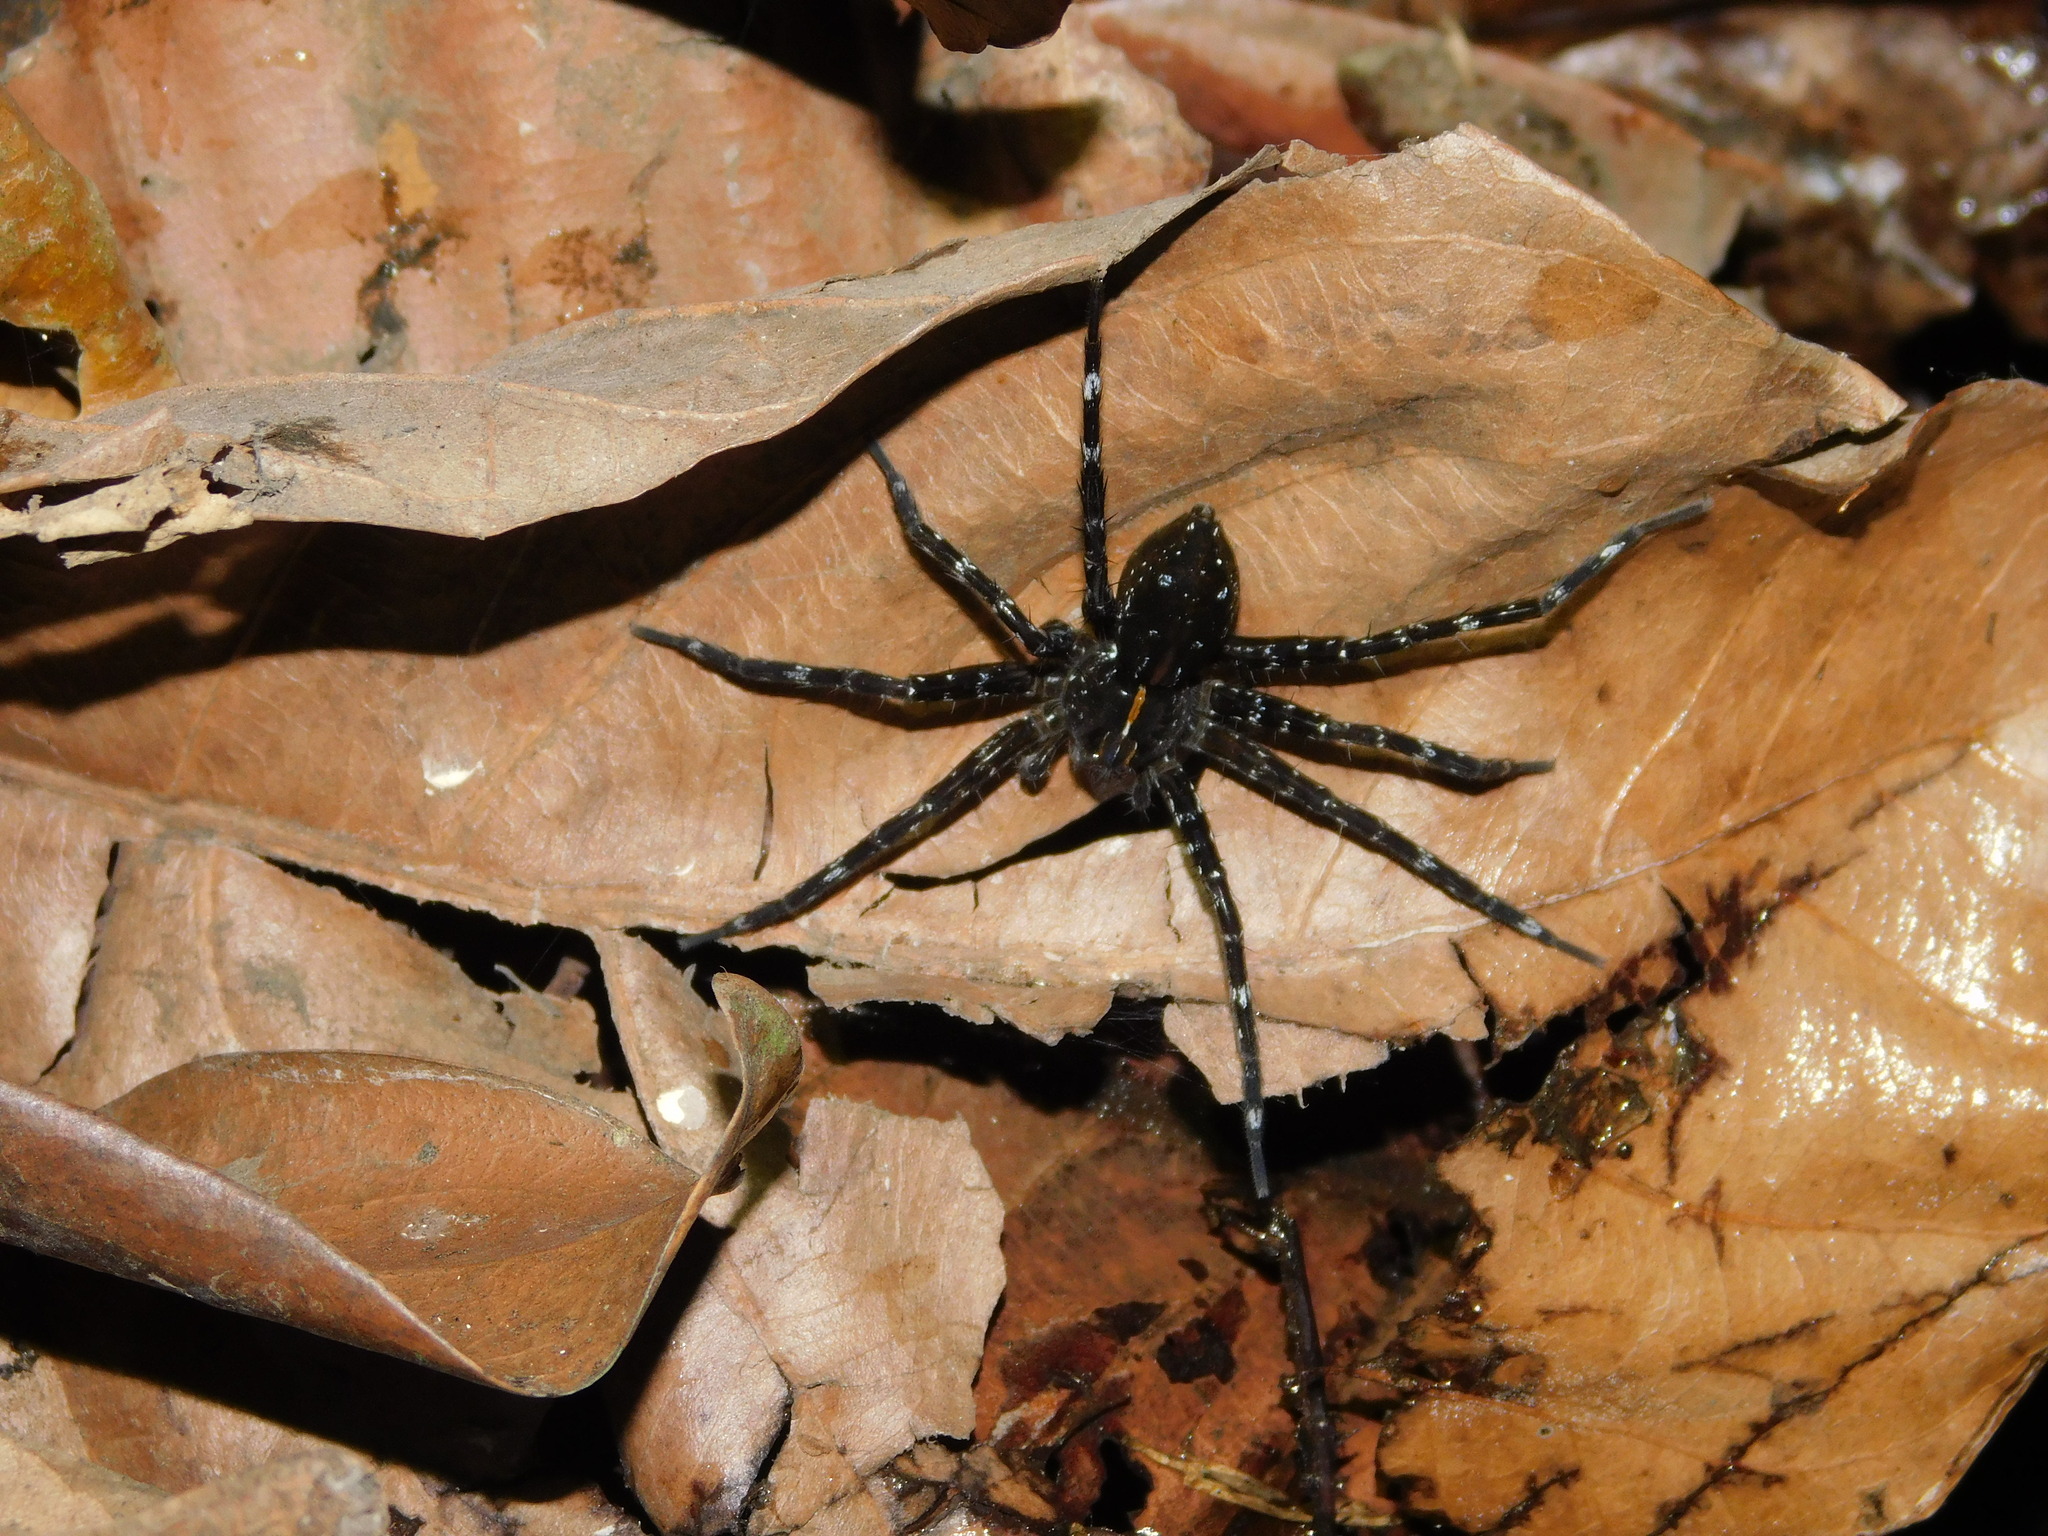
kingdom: Animalia
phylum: Arthropoda
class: Arachnida
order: Araneae
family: Pisauridae
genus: Dolomedes
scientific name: Dolomedes mizhoanus
